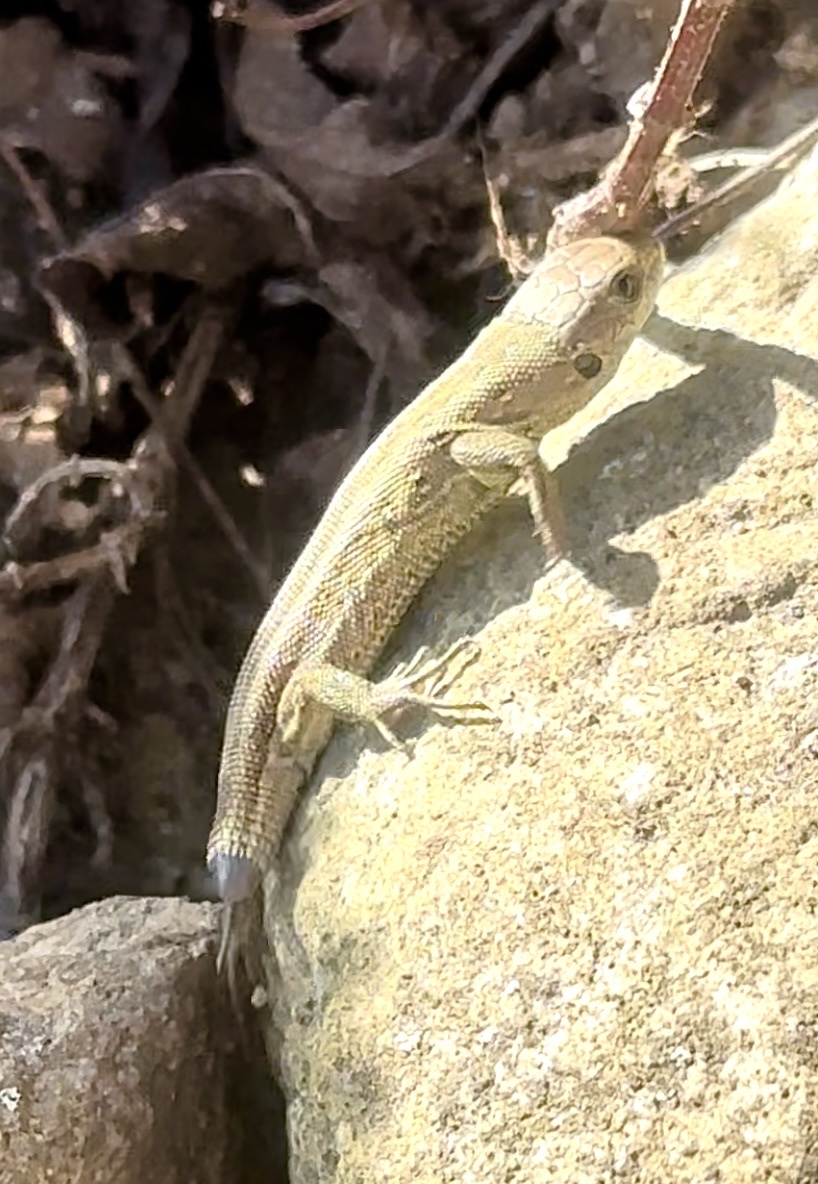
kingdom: Animalia
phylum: Chordata
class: Squamata
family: Lacertidae
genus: Lacerta
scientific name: Lacerta agilis
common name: Sand lizard
